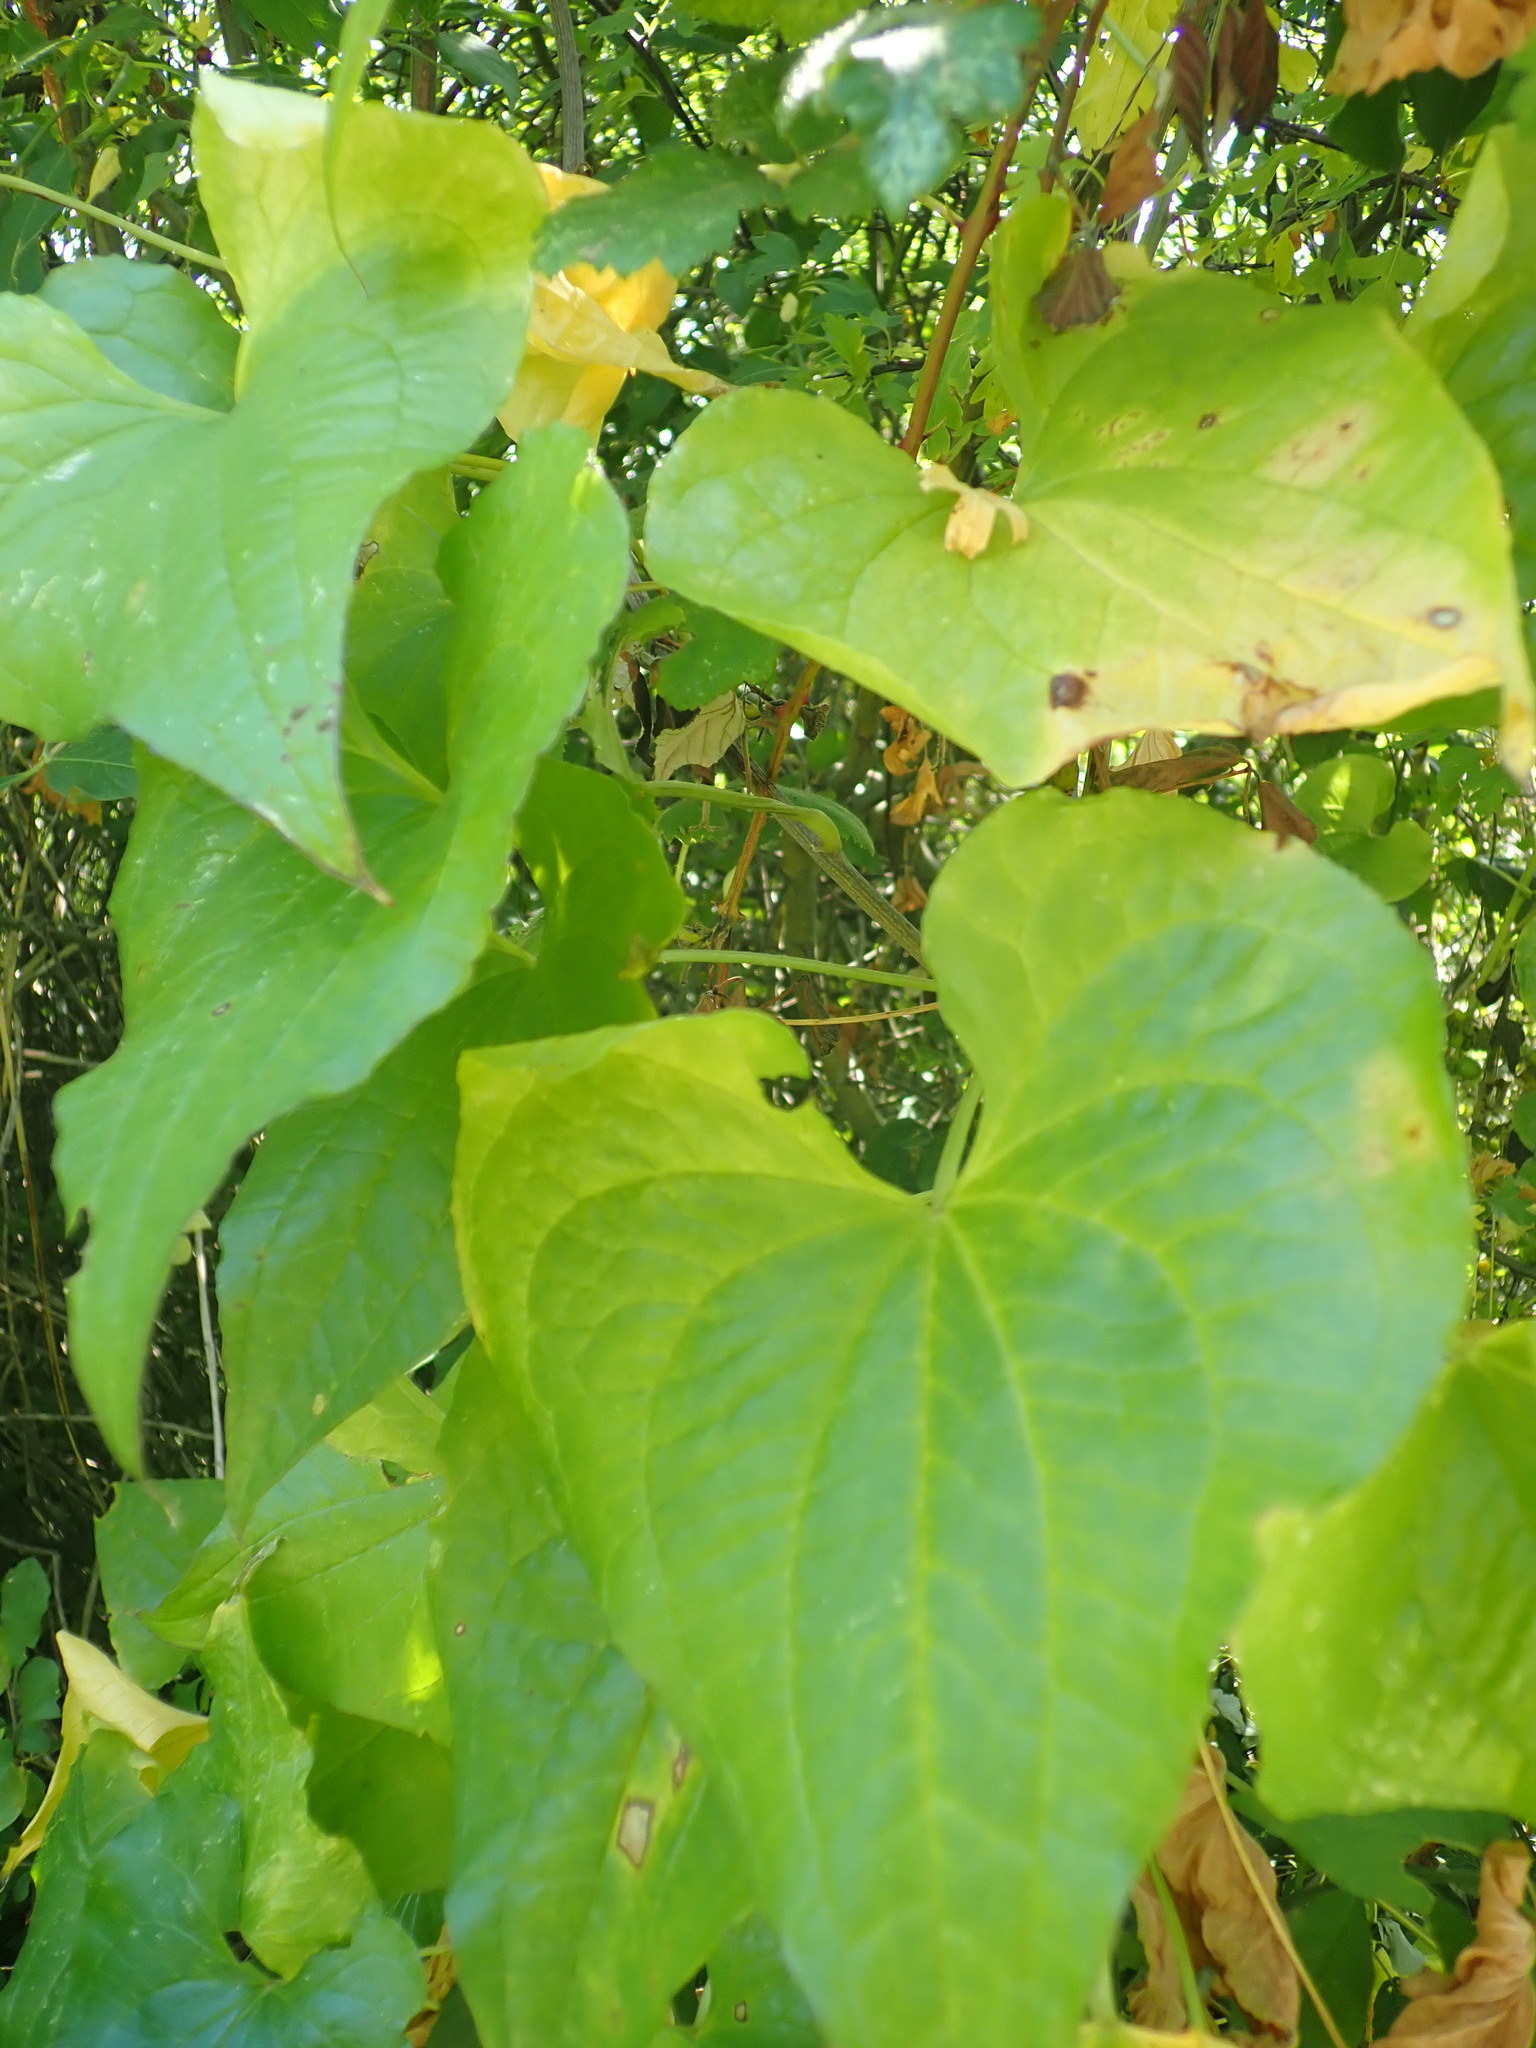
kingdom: Plantae
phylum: Tracheophyta
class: Liliopsida
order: Dioscoreales
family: Dioscoreaceae
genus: Dioscorea
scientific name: Dioscorea communis
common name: Black-bindweed
